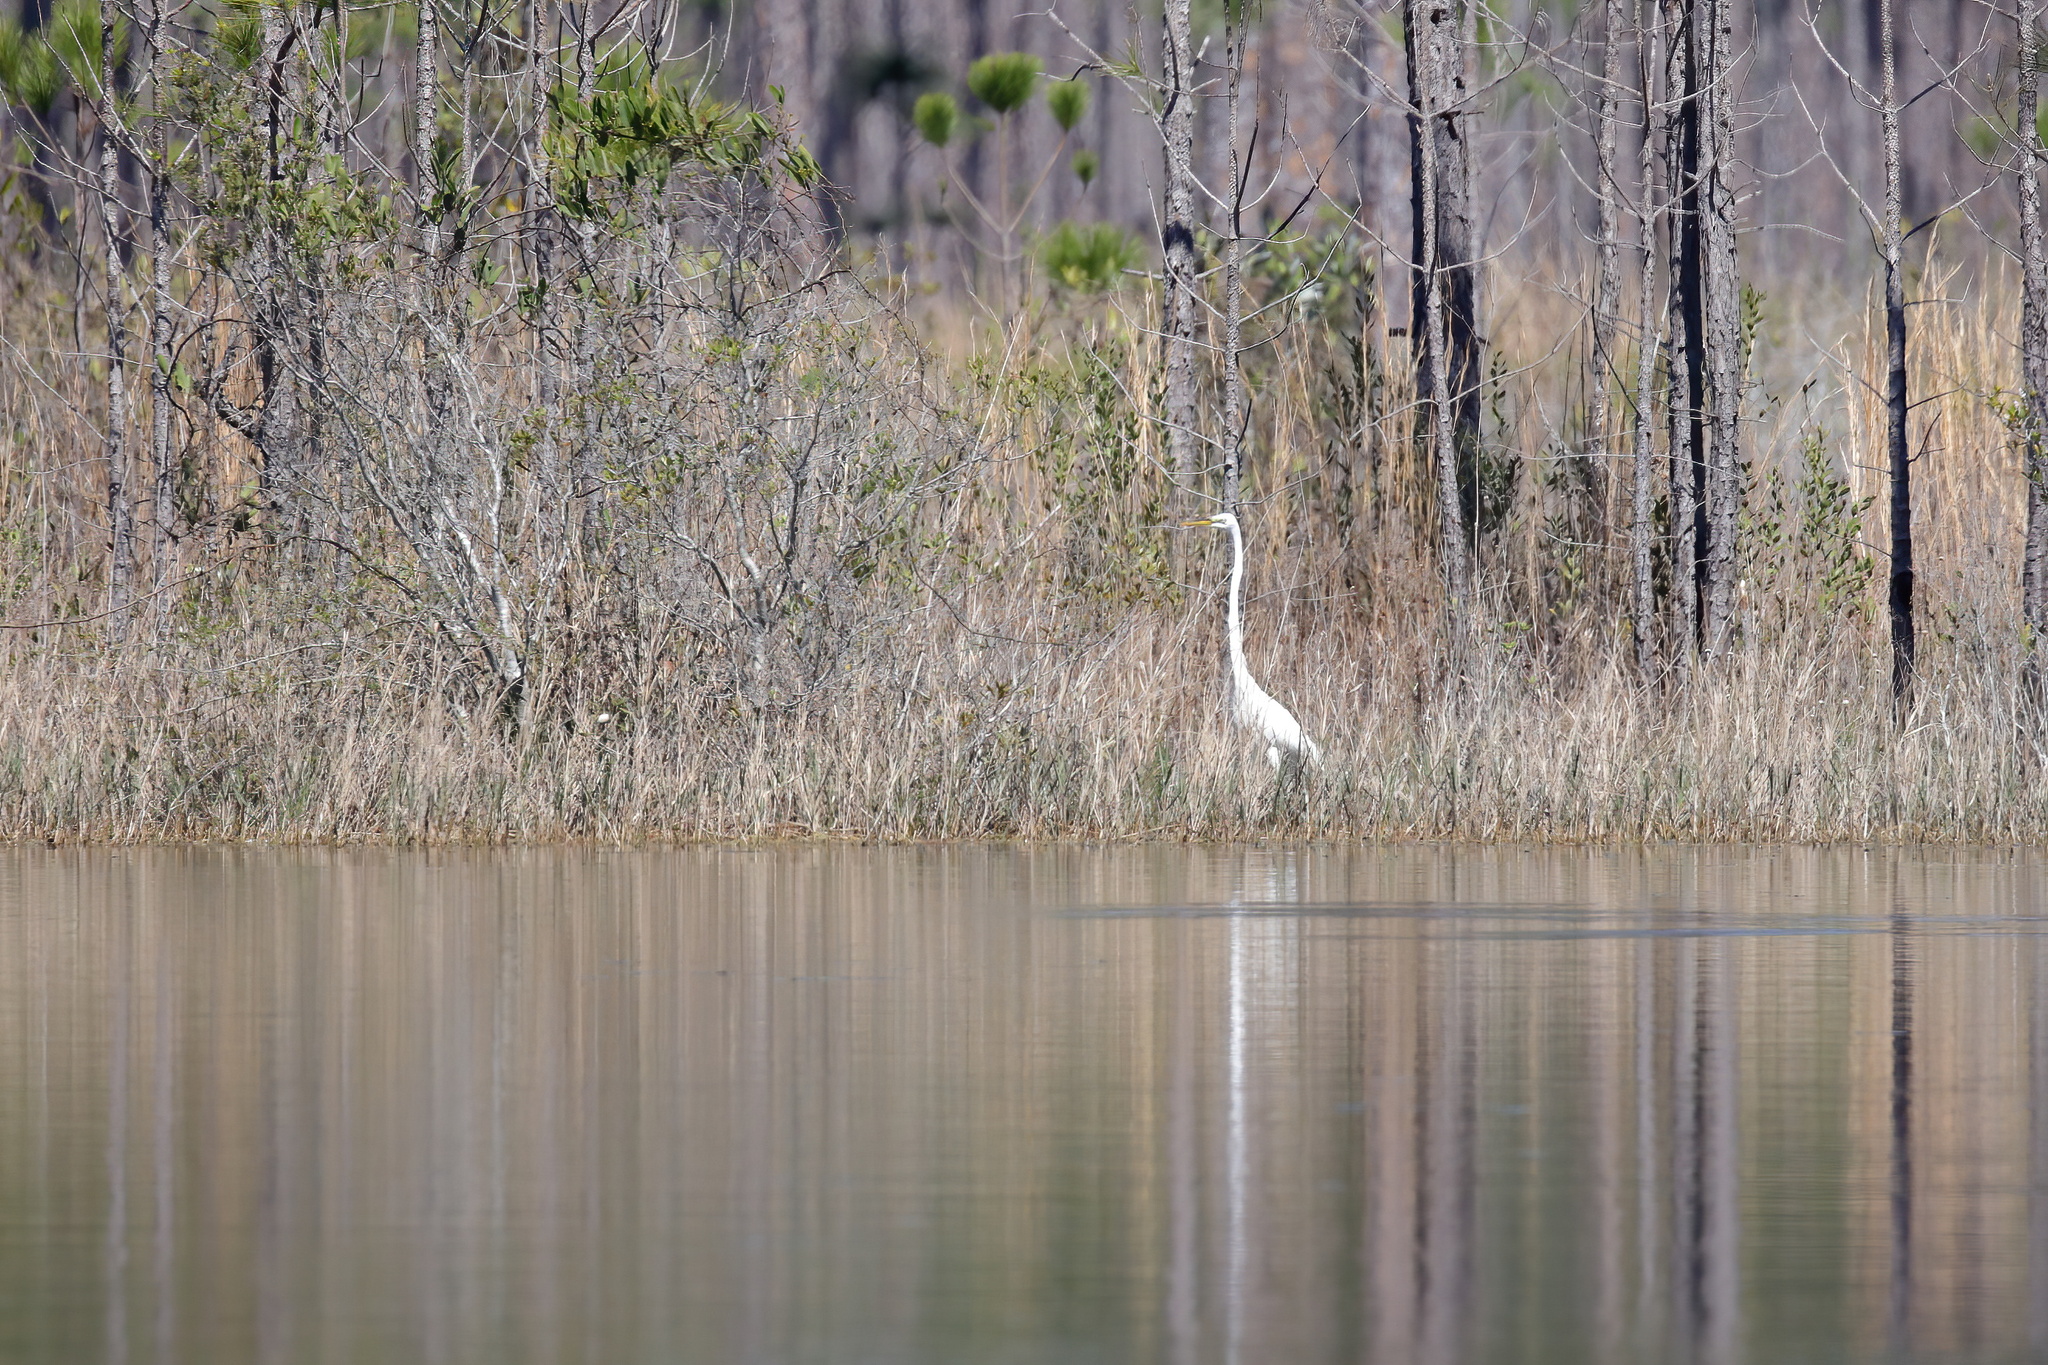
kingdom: Animalia
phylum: Chordata
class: Aves
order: Pelecaniformes
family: Ardeidae
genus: Ardea
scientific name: Ardea alba
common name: Great egret
